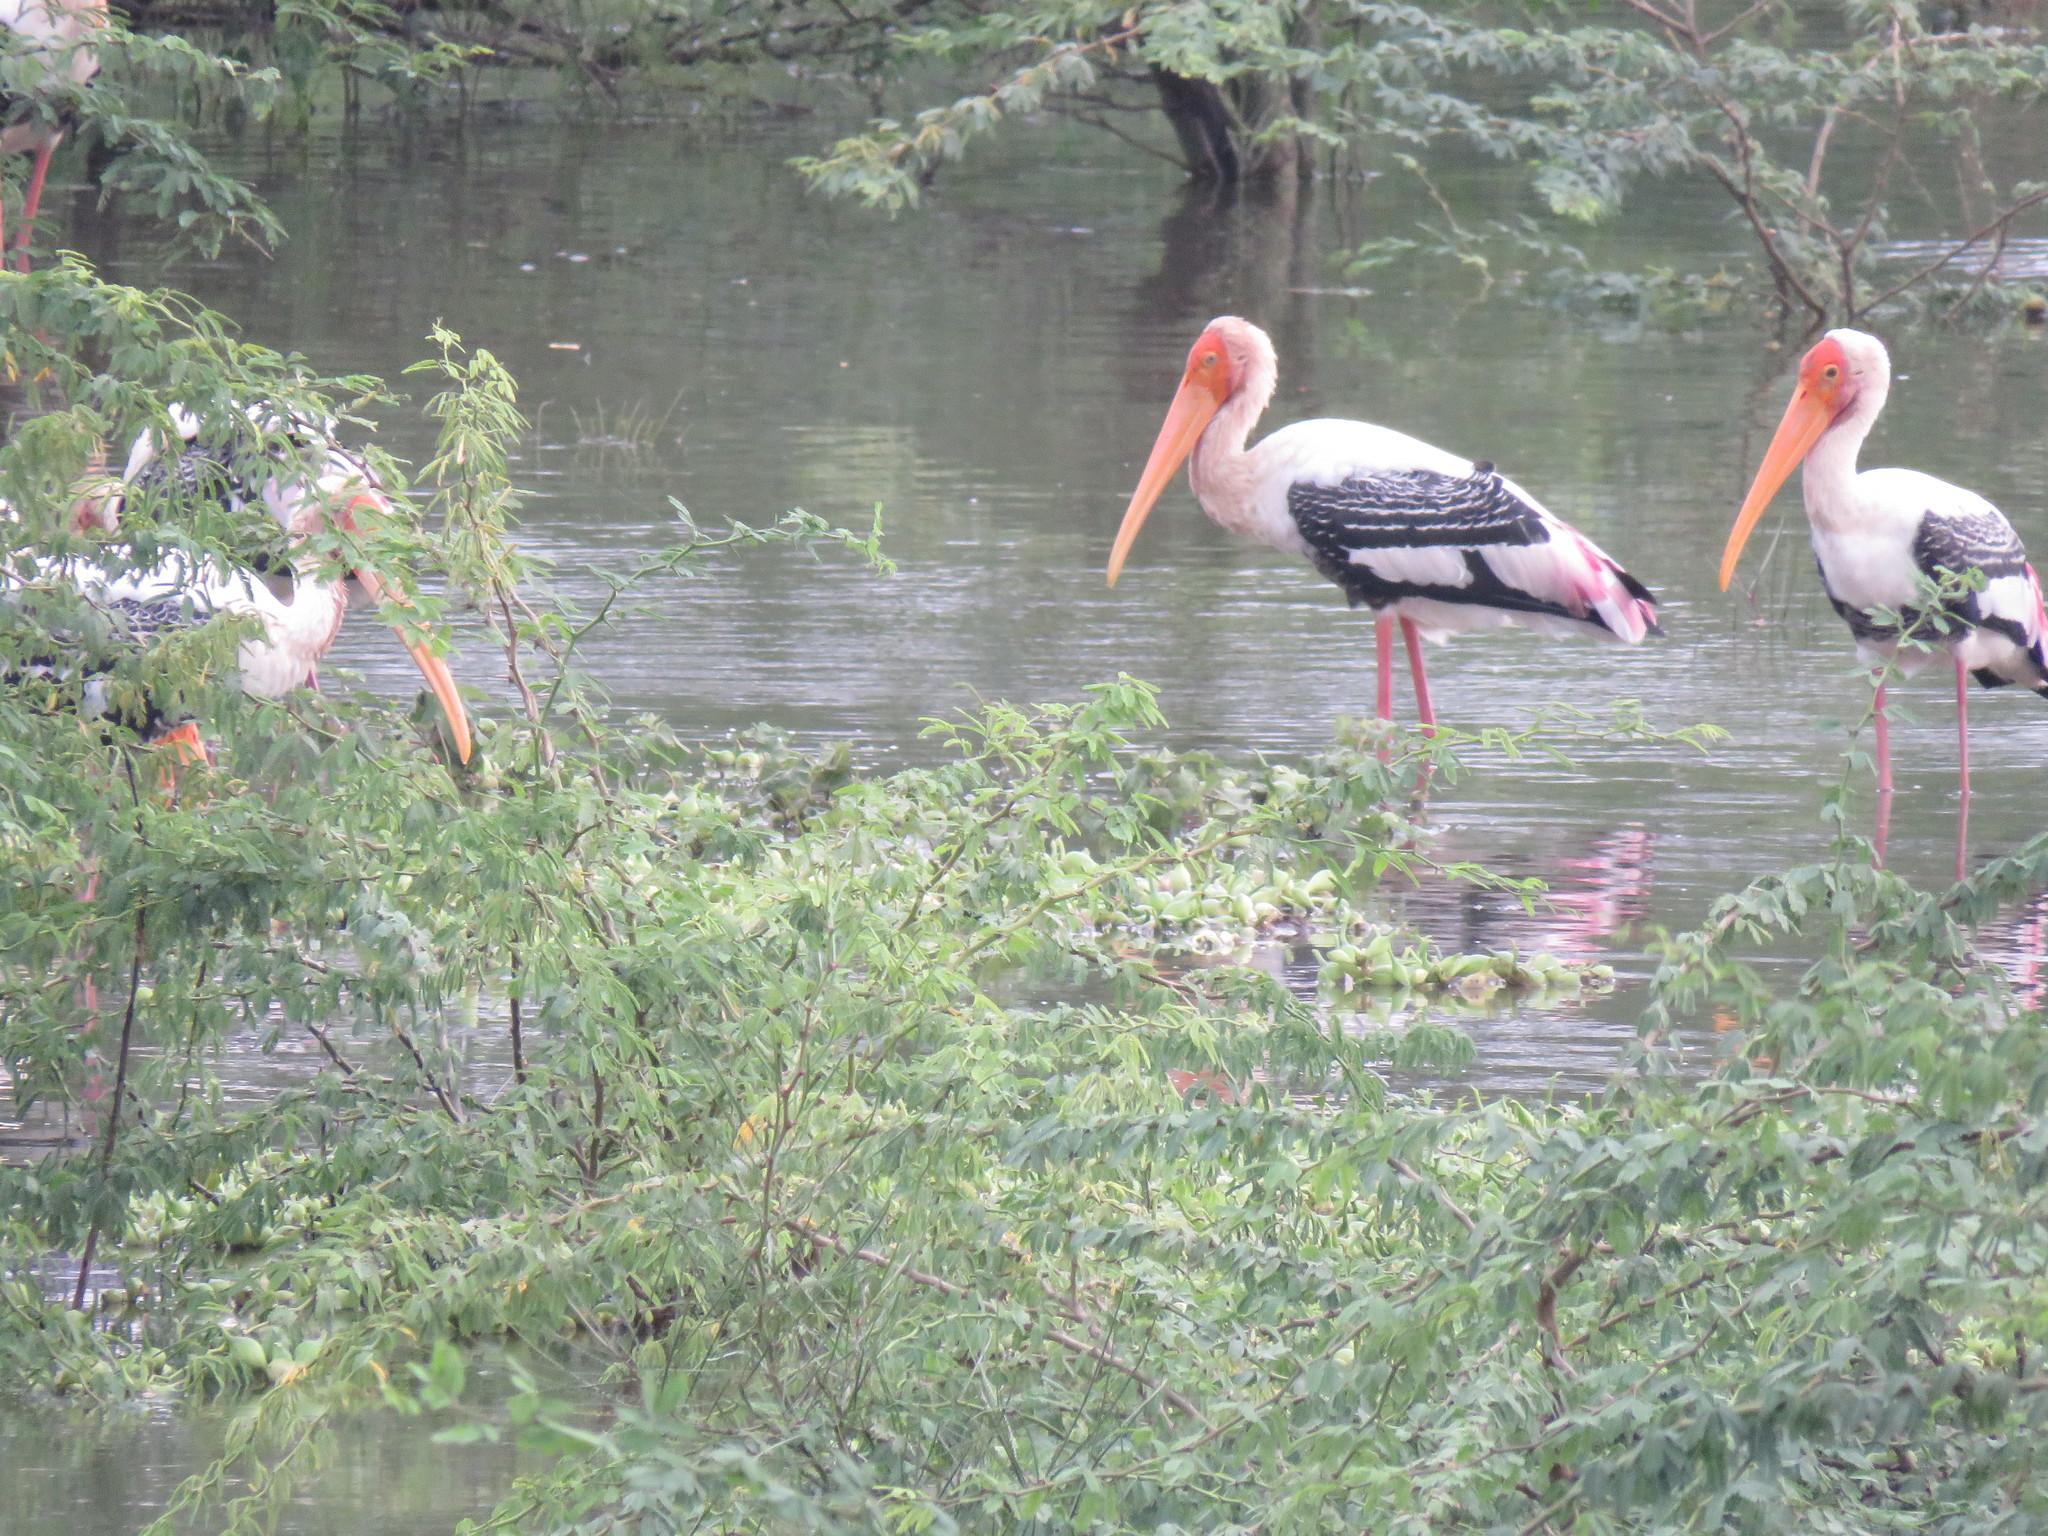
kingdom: Animalia
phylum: Chordata
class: Aves
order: Ciconiiformes
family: Ciconiidae
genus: Mycteria
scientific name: Mycteria leucocephala
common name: Painted stork
